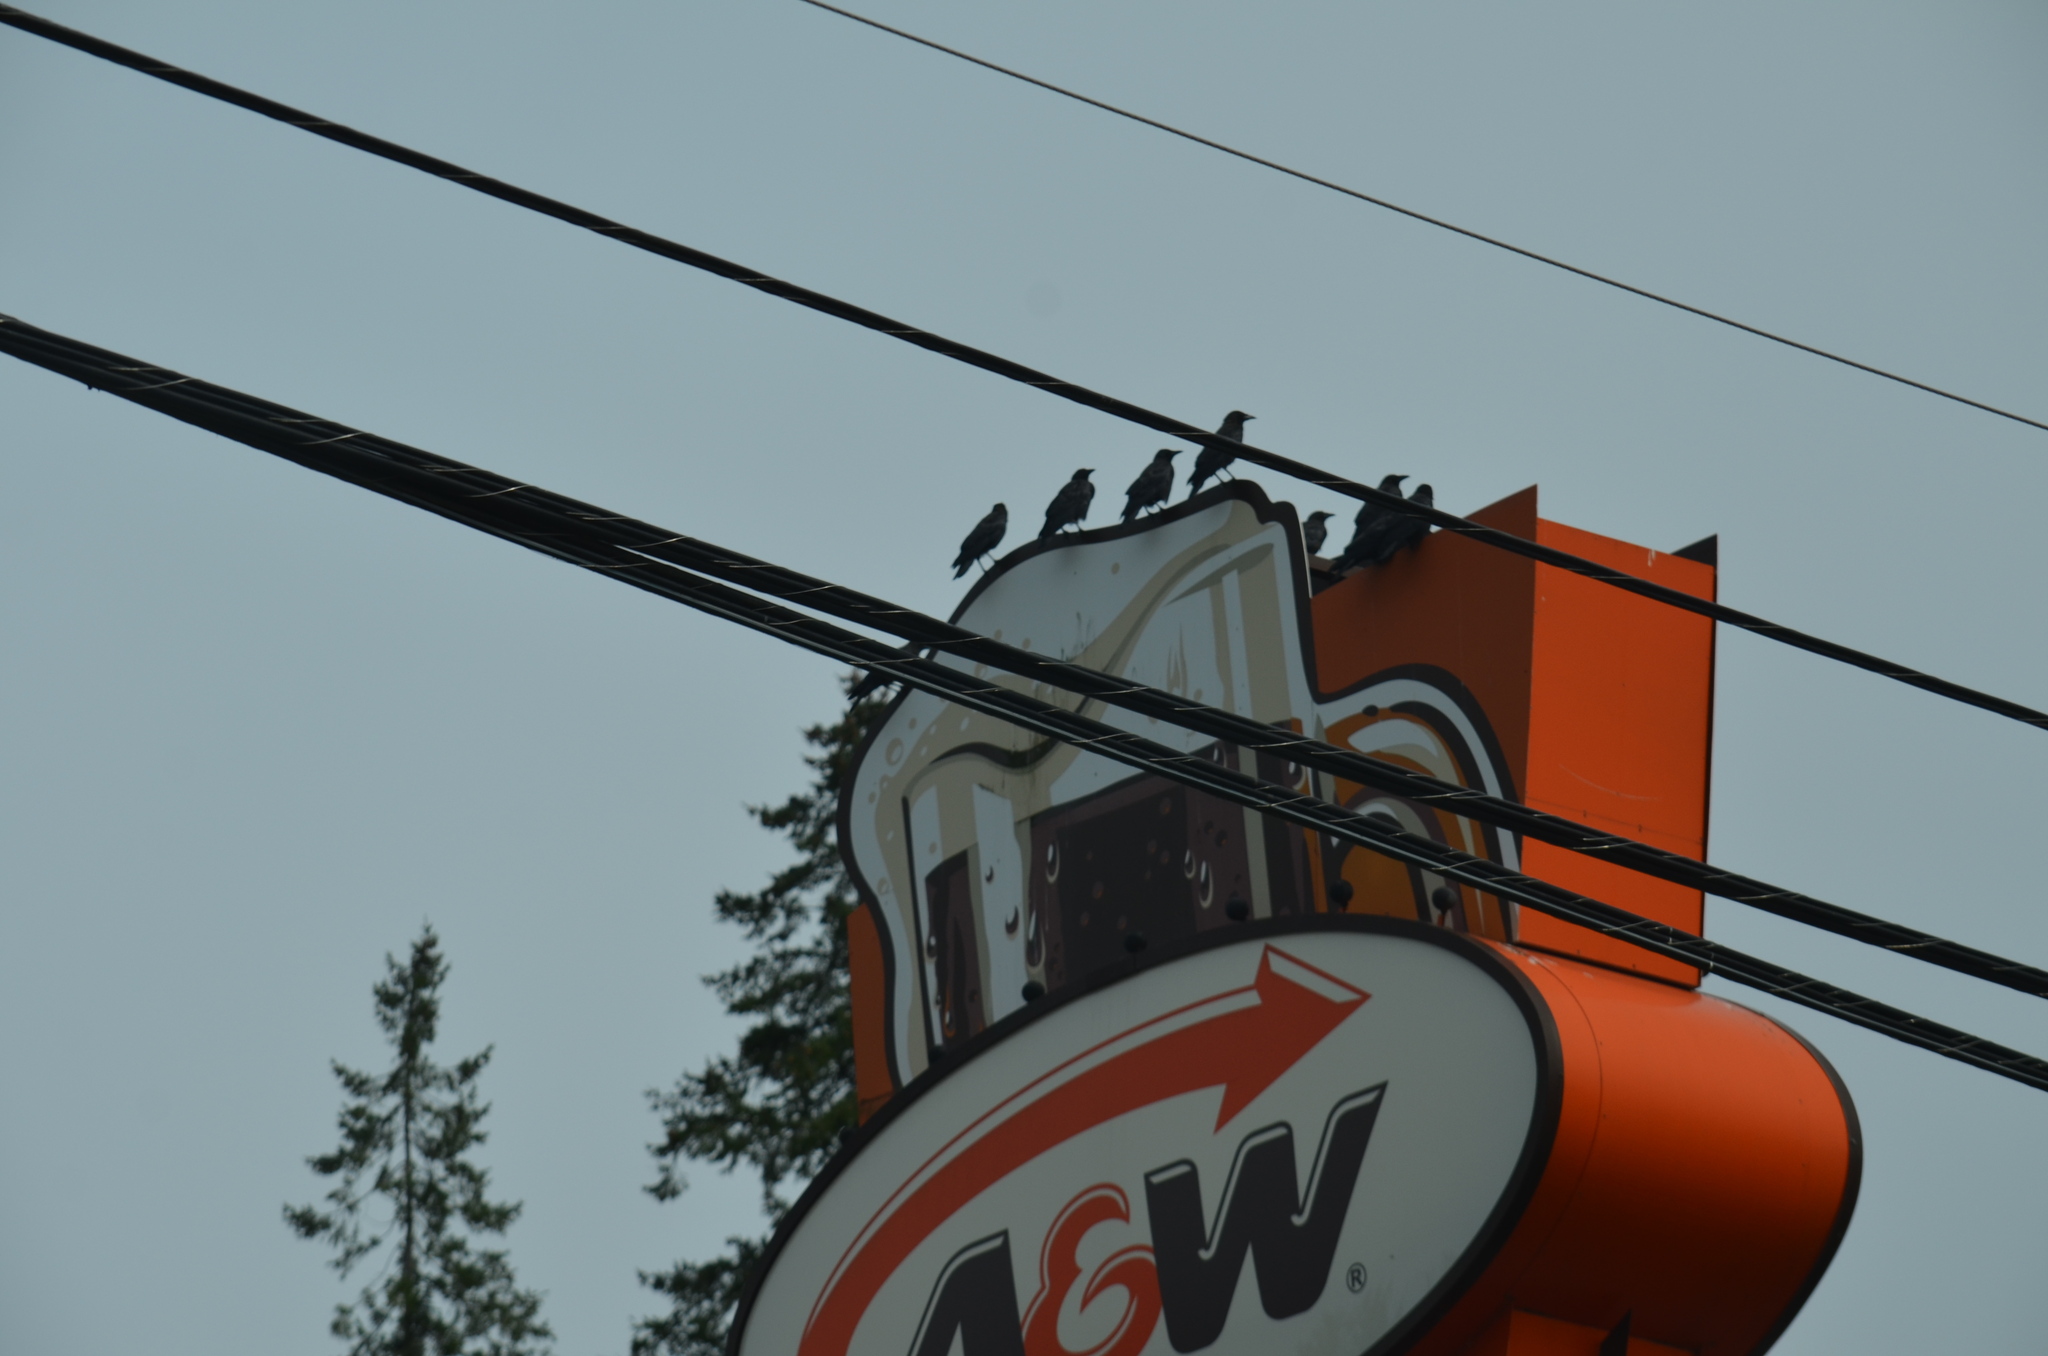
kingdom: Animalia
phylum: Chordata
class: Aves
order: Passeriformes
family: Corvidae
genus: Corvus
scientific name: Corvus brachyrhynchos
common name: American crow
